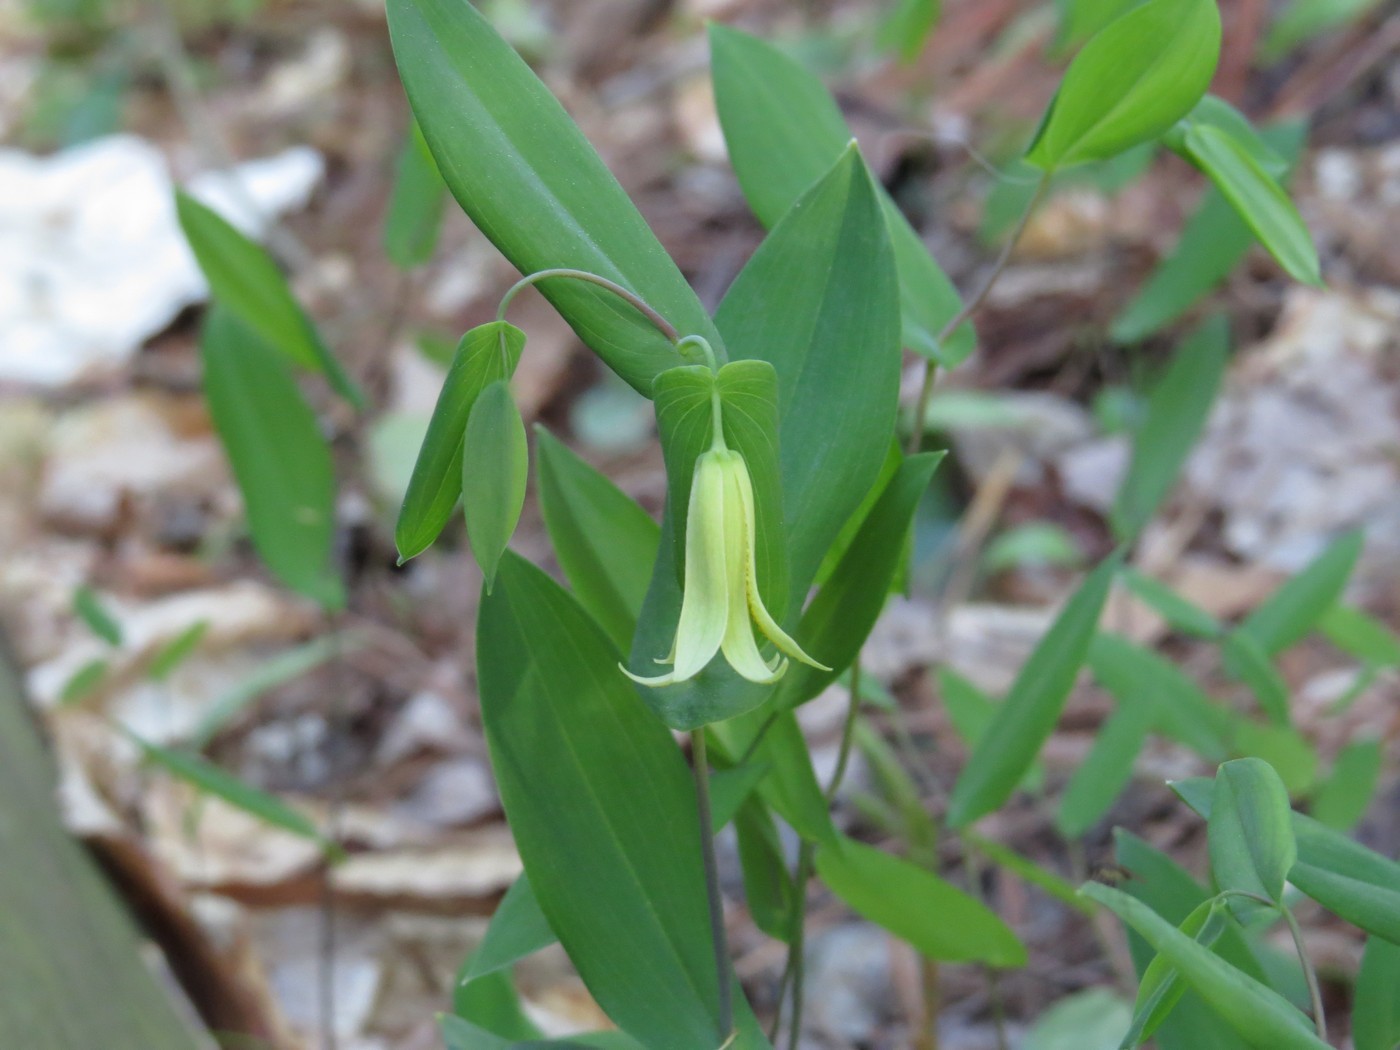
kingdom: Plantae
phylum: Tracheophyta
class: Liliopsida
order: Liliales
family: Colchicaceae
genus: Uvularia
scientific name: Uvularia perfoliata
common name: Perfoliate bellwort
